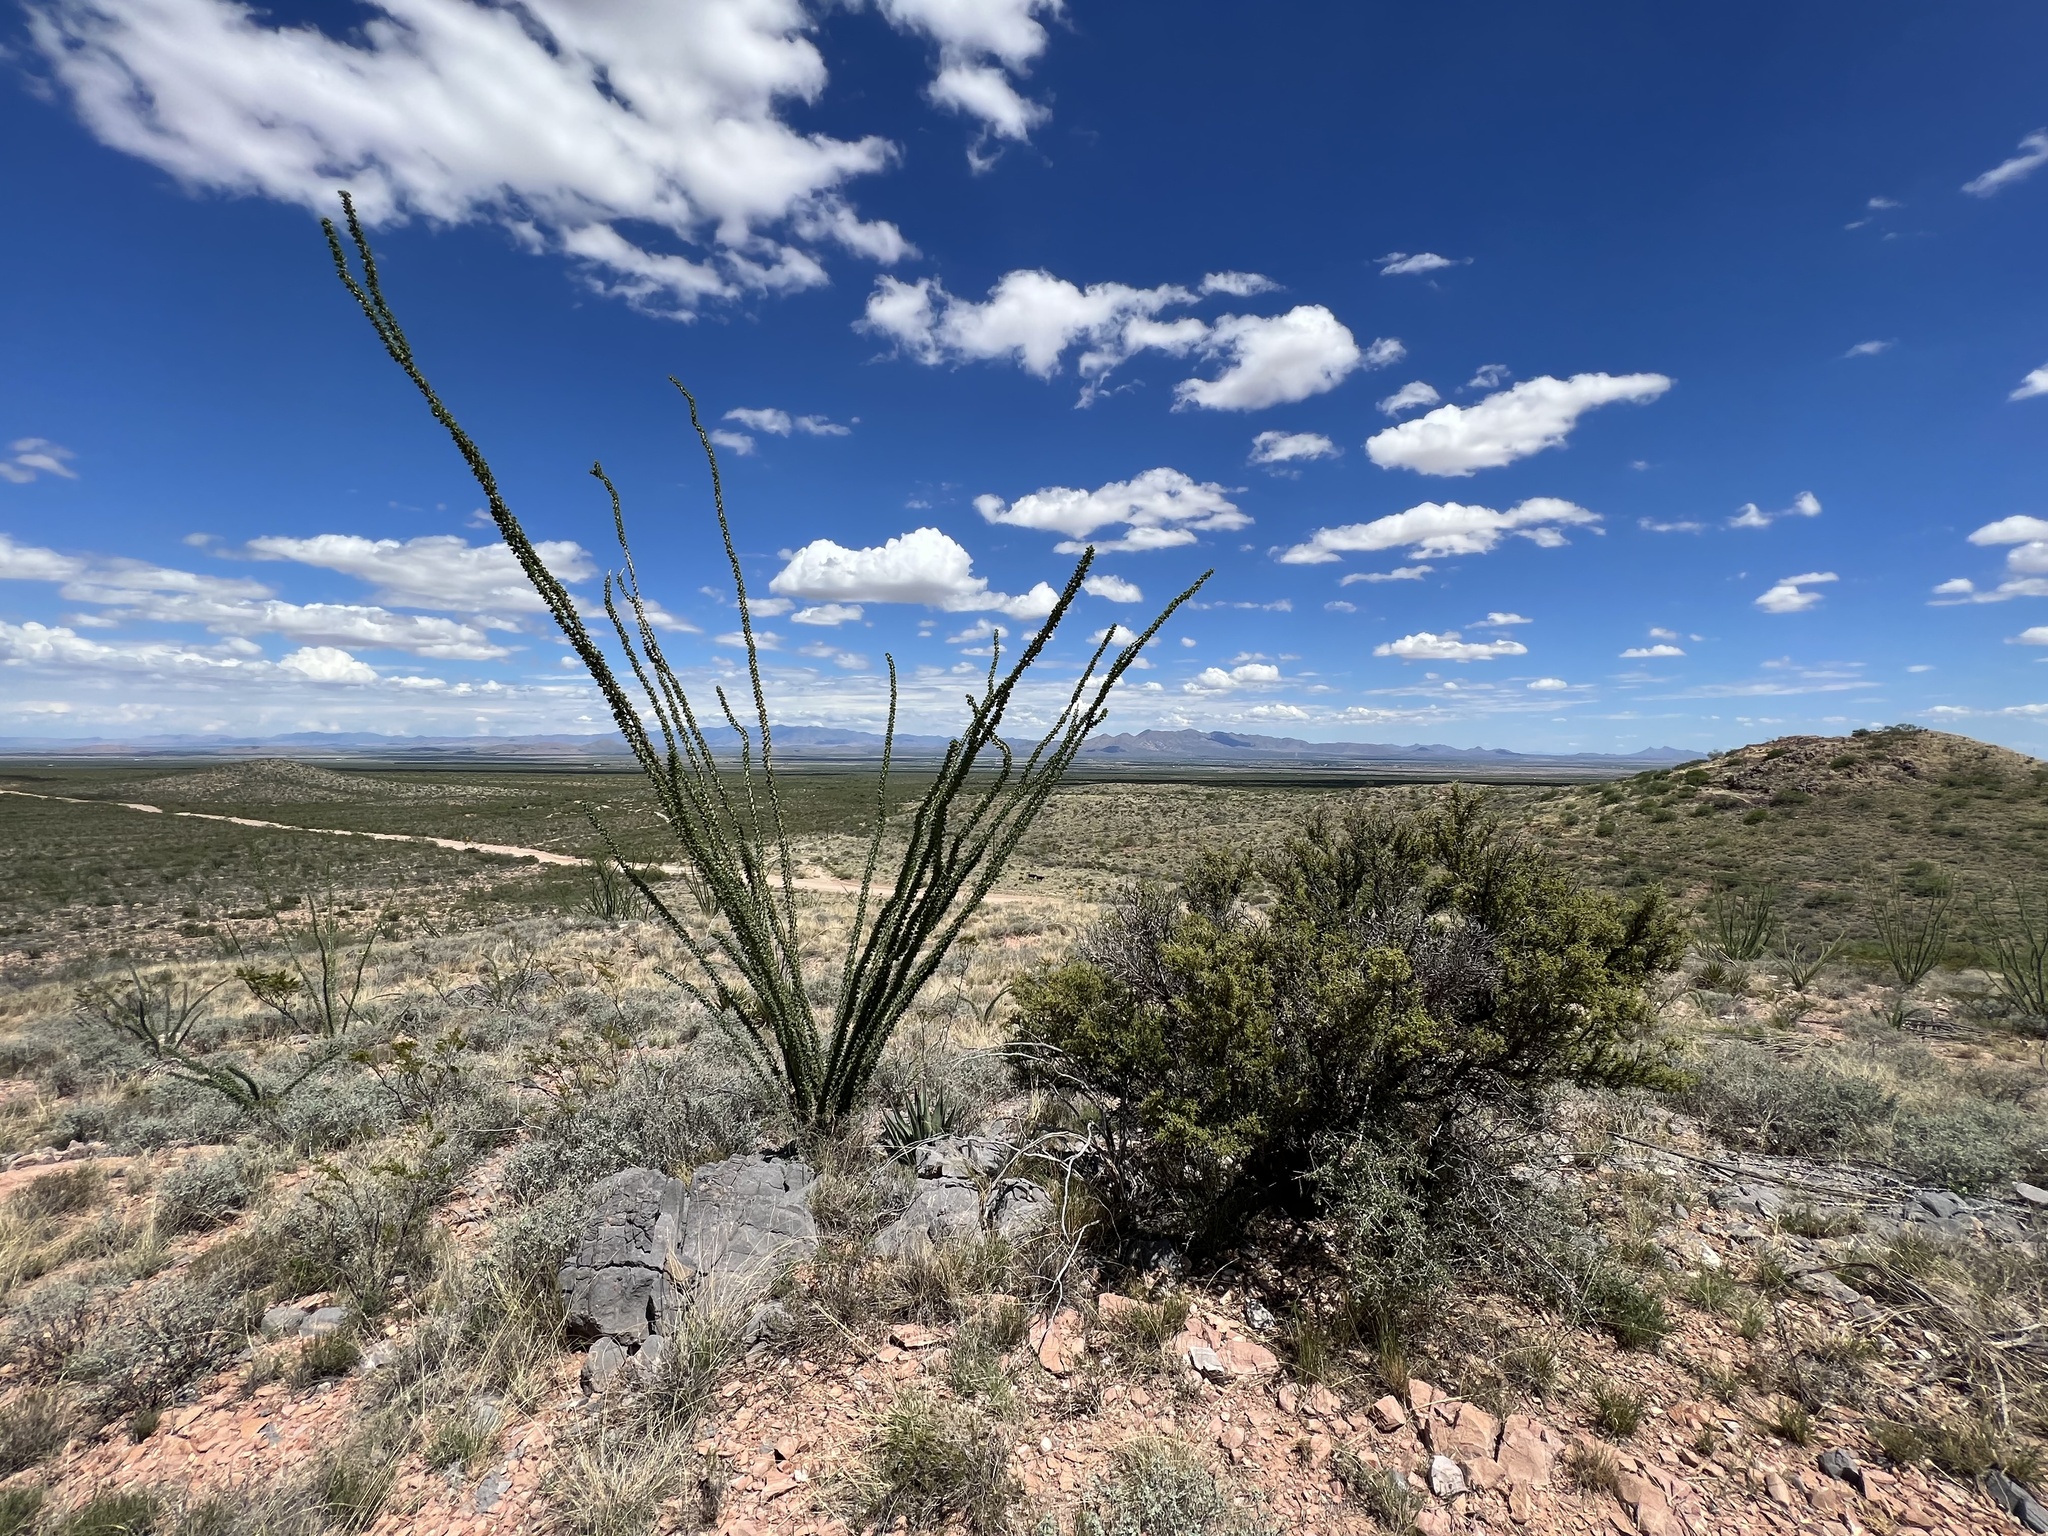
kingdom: Plantae
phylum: Tracheophyta
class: Magnoliopsida
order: Ericales
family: Fouquieriaceae
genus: Fouquieria
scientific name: Fouquieria splendens
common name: Vine-cactus
